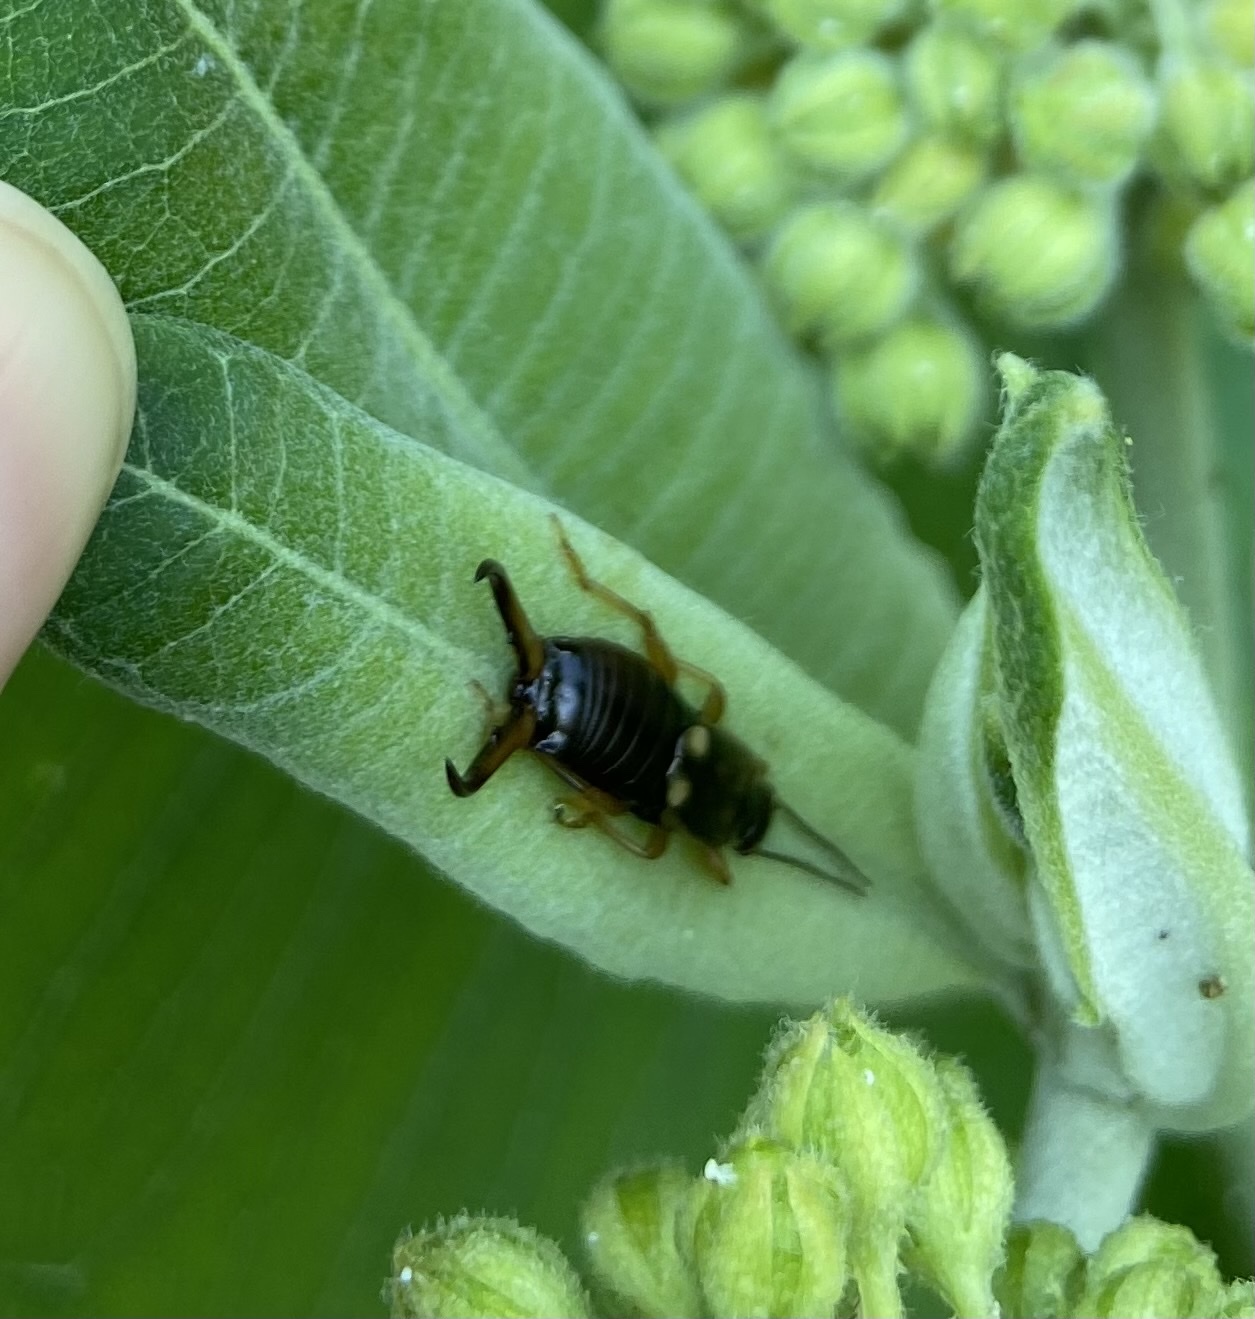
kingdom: Animalia
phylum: Arthropoda
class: Insecta
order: Dermaptera
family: Forficulidae
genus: Forficula
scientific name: Forficula
